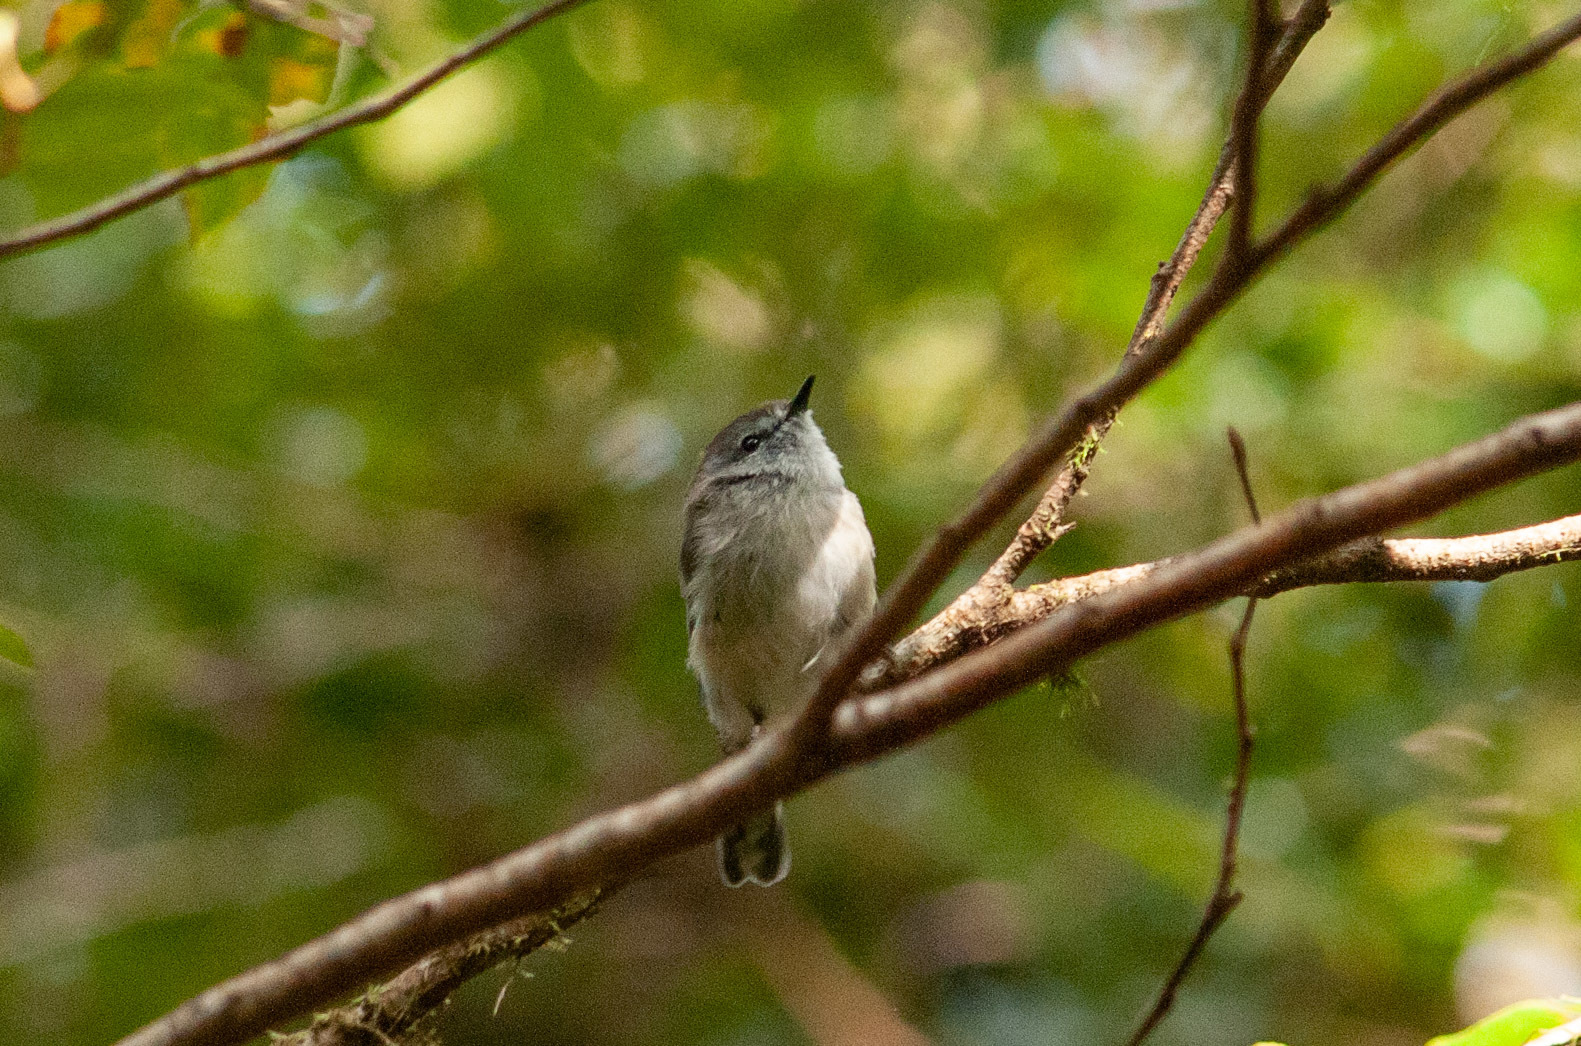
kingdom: Animalia
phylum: Chordata
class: Aves
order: Passeriformes
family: Acanthizidae
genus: Gerygone
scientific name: Gerygone mouki
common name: Brown gerygone
